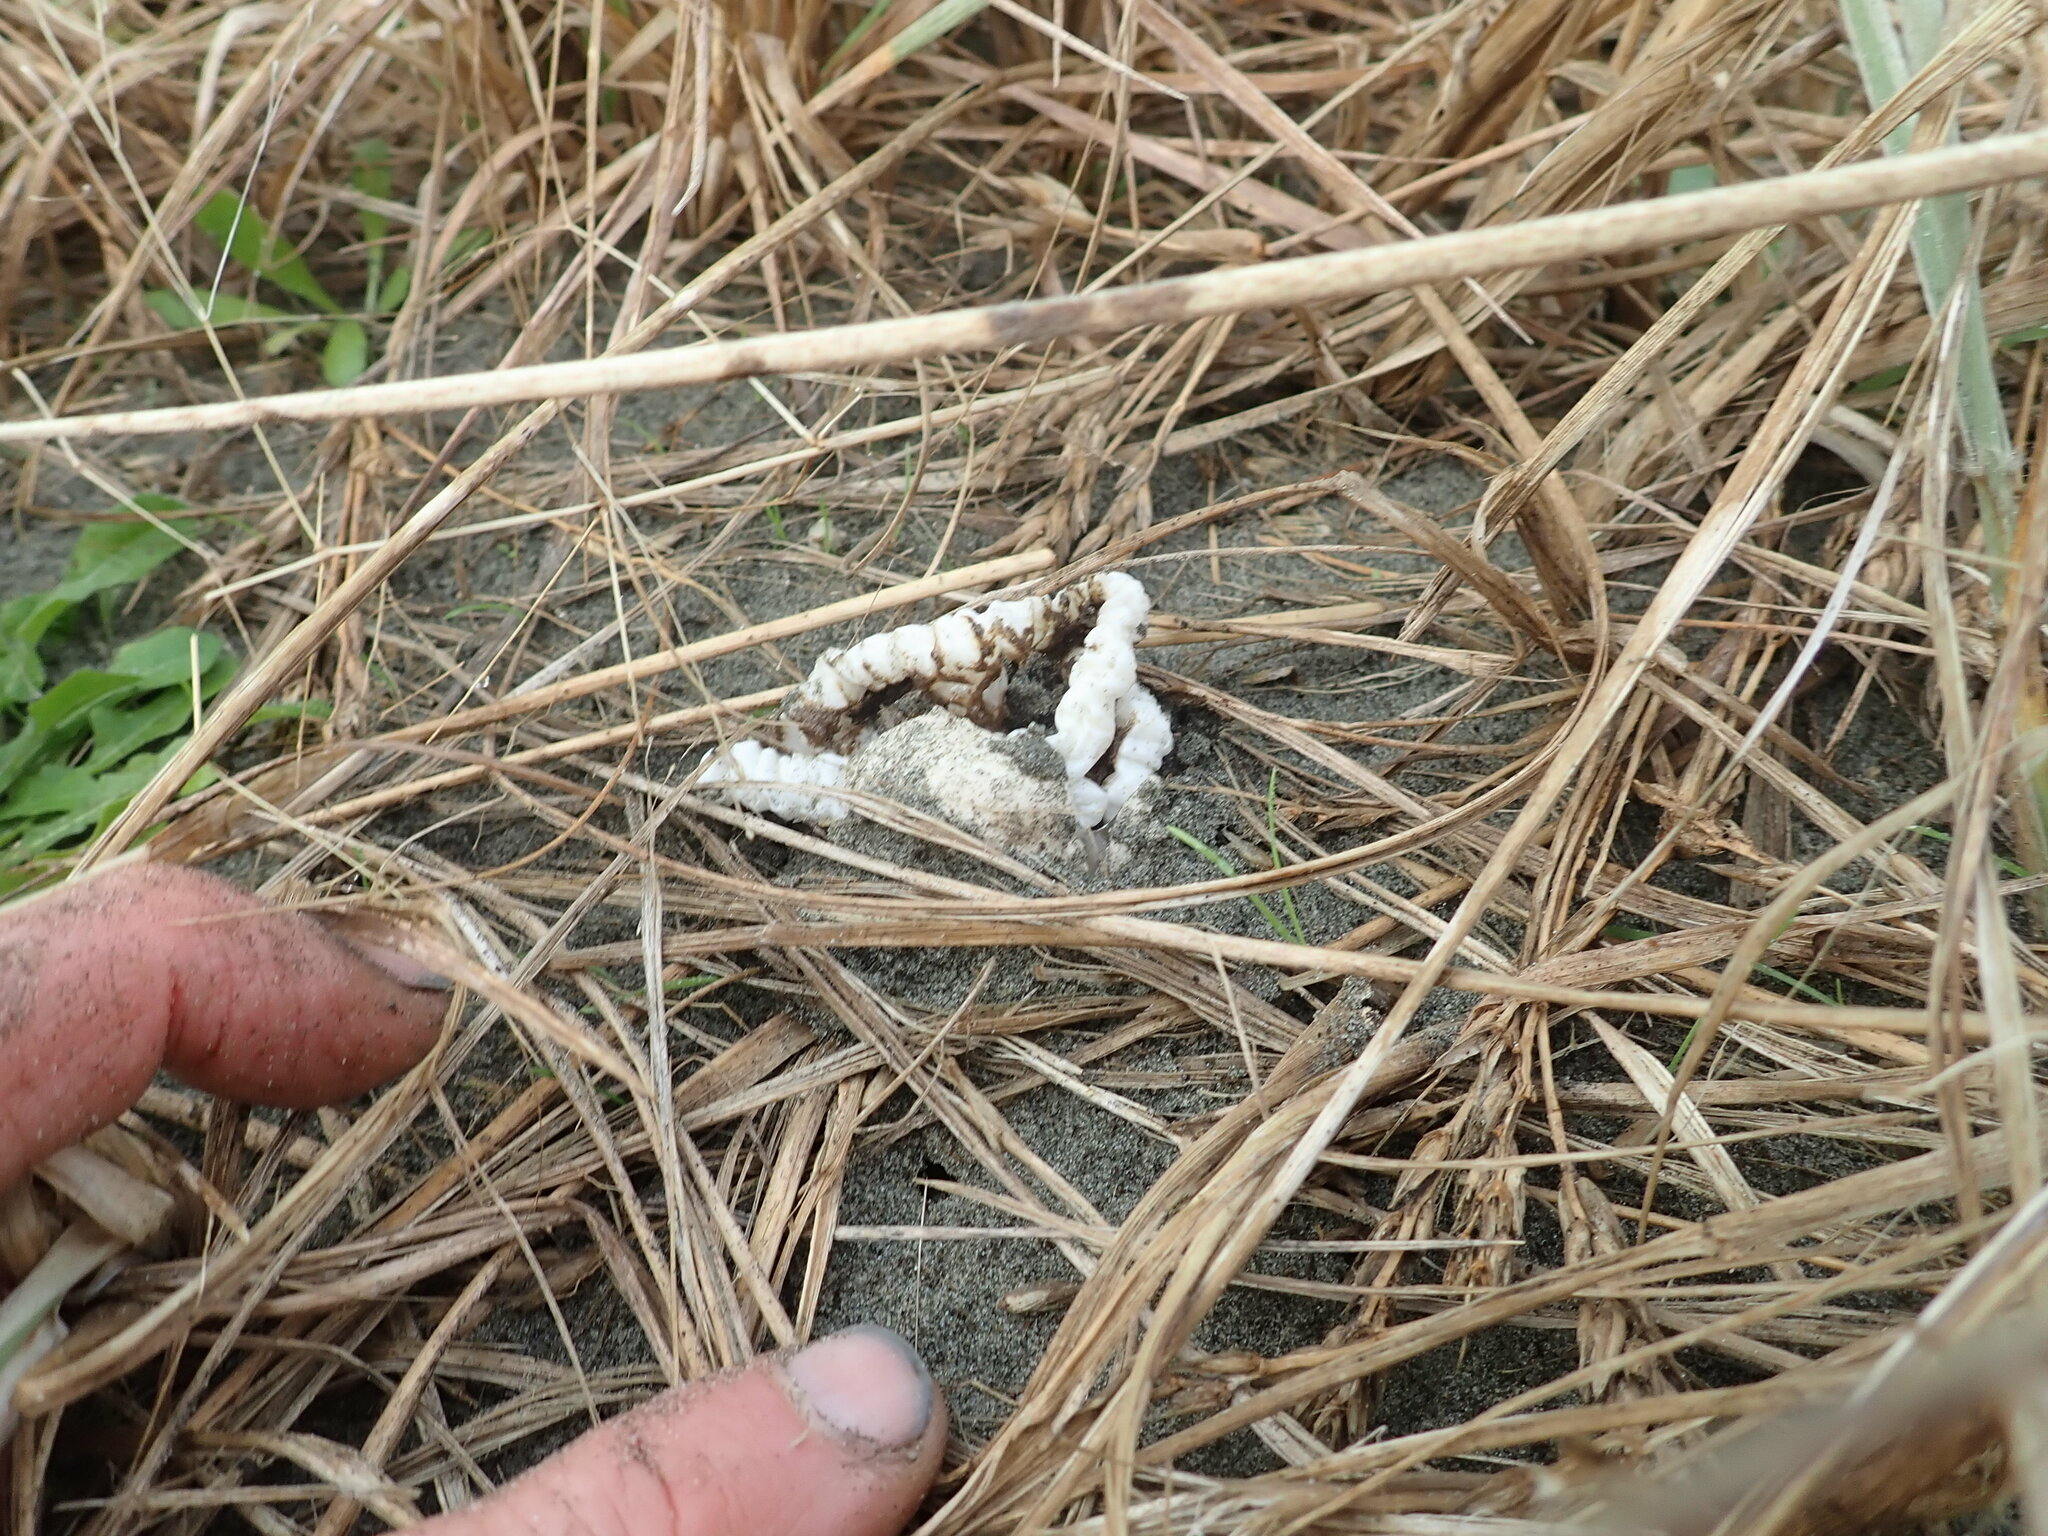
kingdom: Fungi
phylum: Basidiomycota
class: Agaricomycetes
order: Phallales
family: Phallaceae
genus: Ileodictyon
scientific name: Ileodictyon cibarium
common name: Basket fungus
